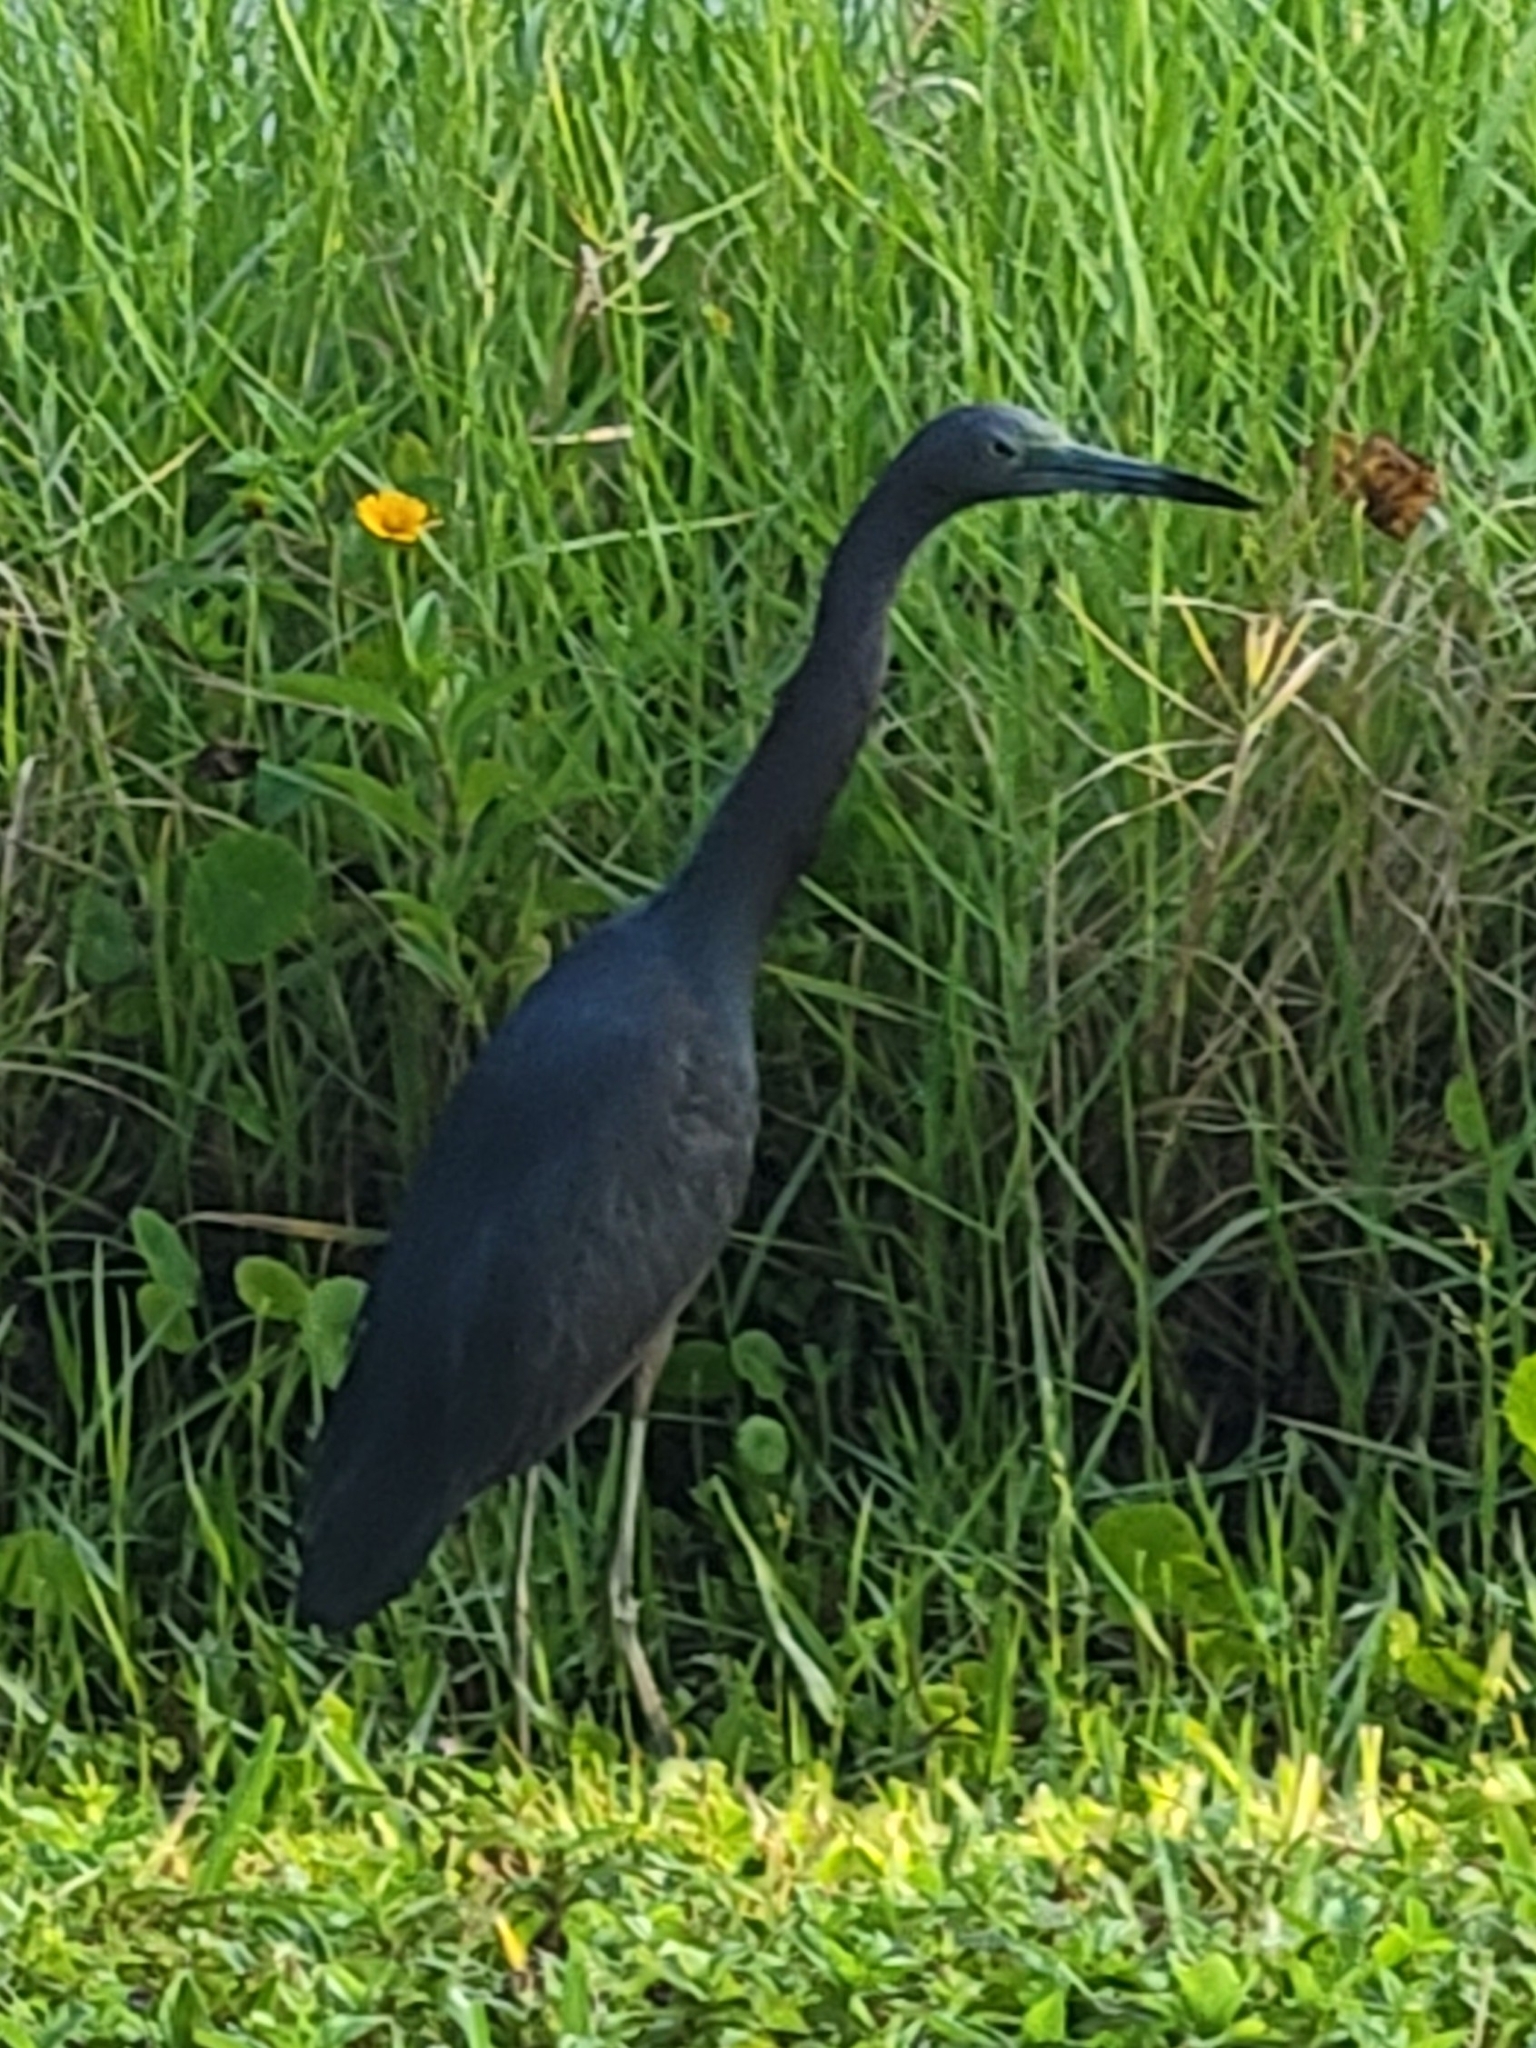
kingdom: Animalia
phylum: Chordata
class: Aves
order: Pelecaniformes
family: Ardeidae
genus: Egretta
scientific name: Egretta caerulea
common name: Little blue heron
